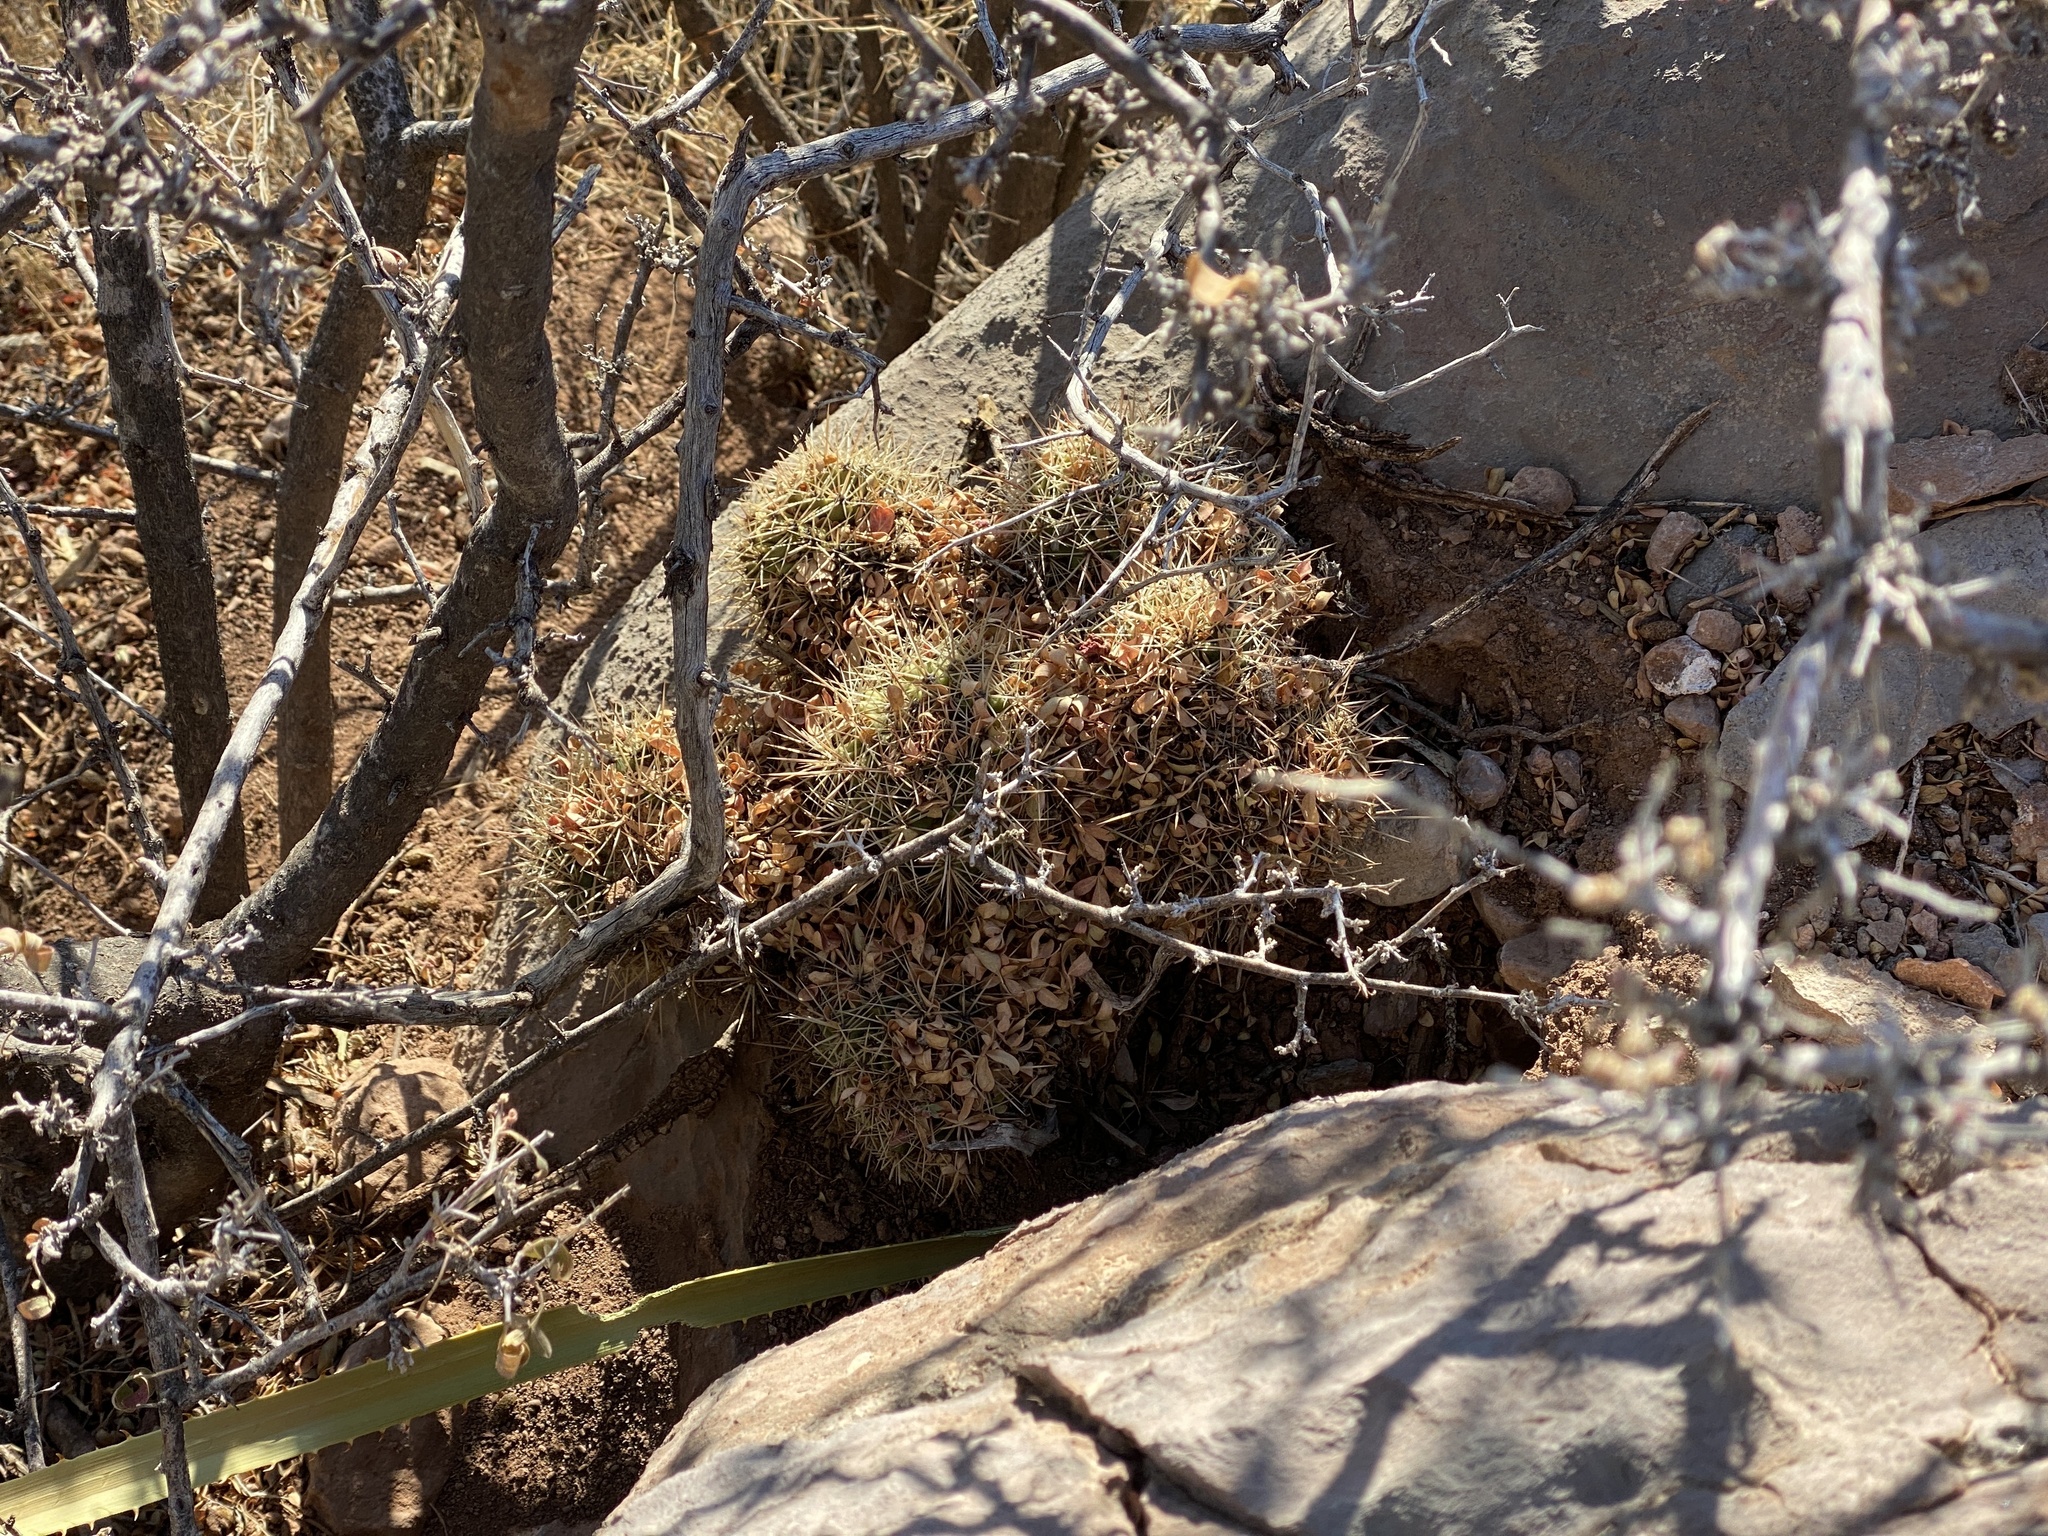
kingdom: Plantae
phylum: Tracheophyta
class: Magnoliopsida
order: Caryophyllales
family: Cactaceae
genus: Echinocereus
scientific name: Echinocereus coccineus
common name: Scarlet hedgehog cactus
